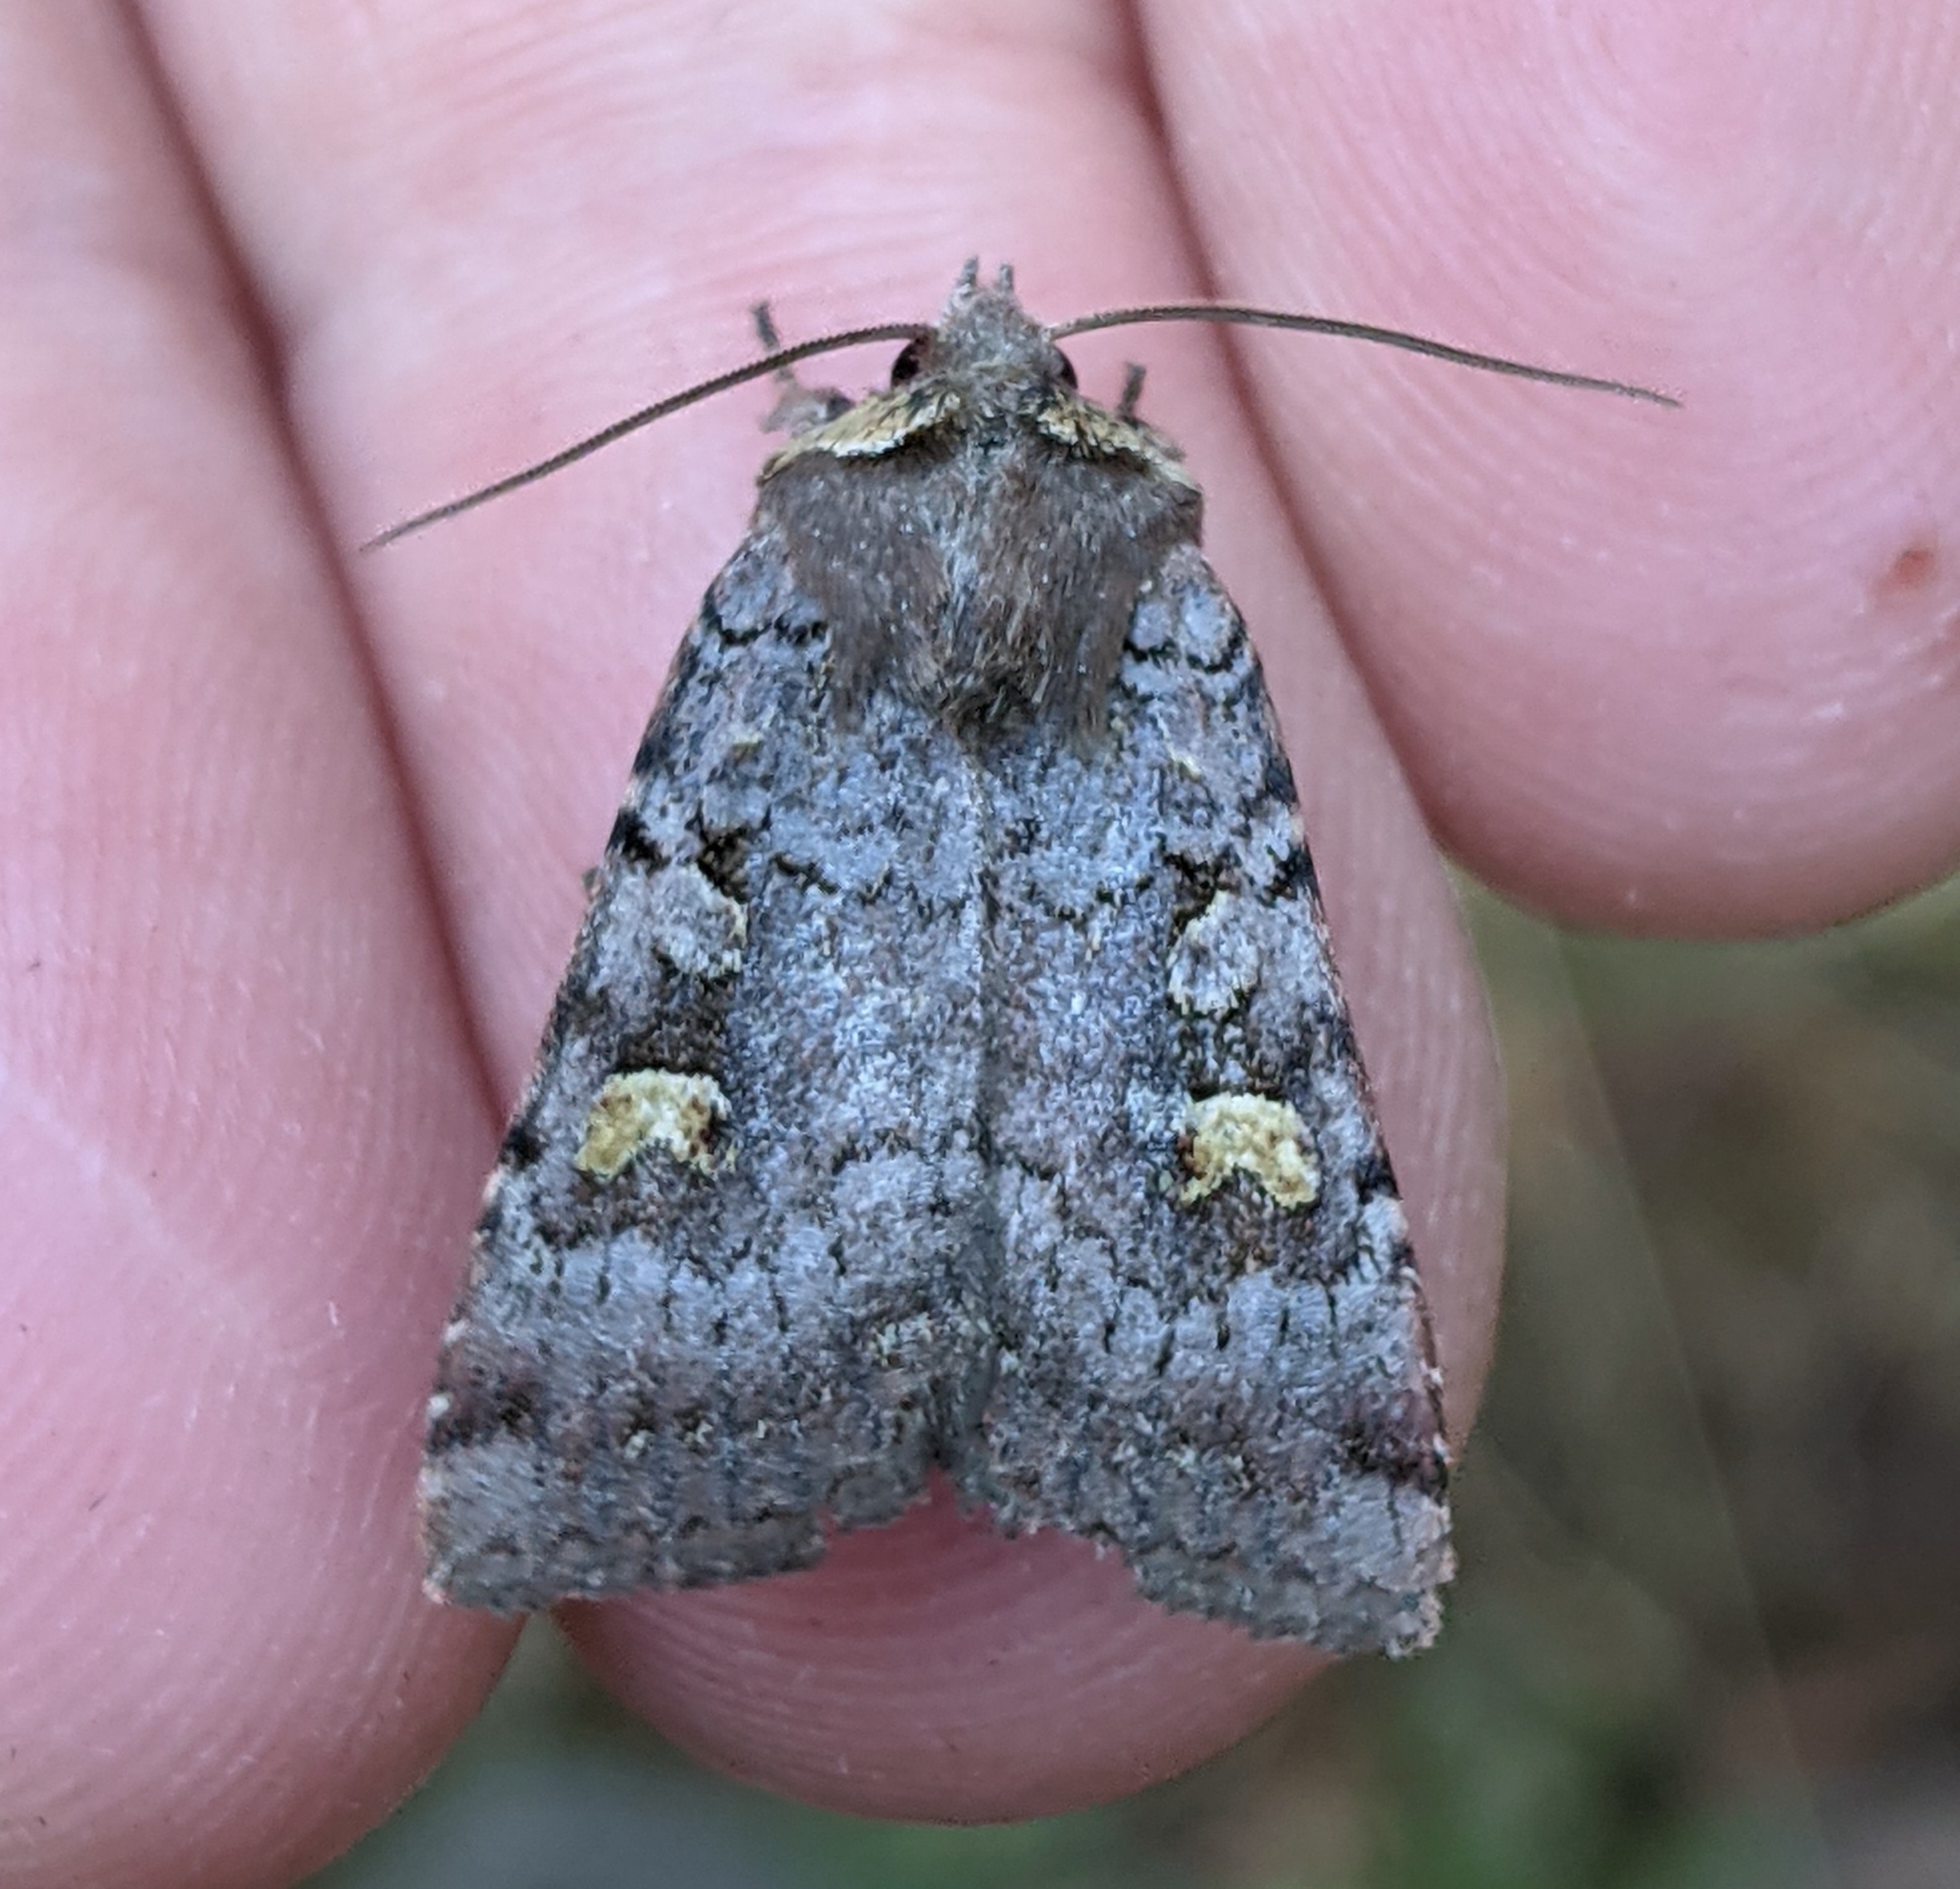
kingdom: Animalia
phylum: Arthropoda
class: Insecta
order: Lepidoptera
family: Noctuidae
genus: Adelphagrotis
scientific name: Adelphagrotis stellaris
